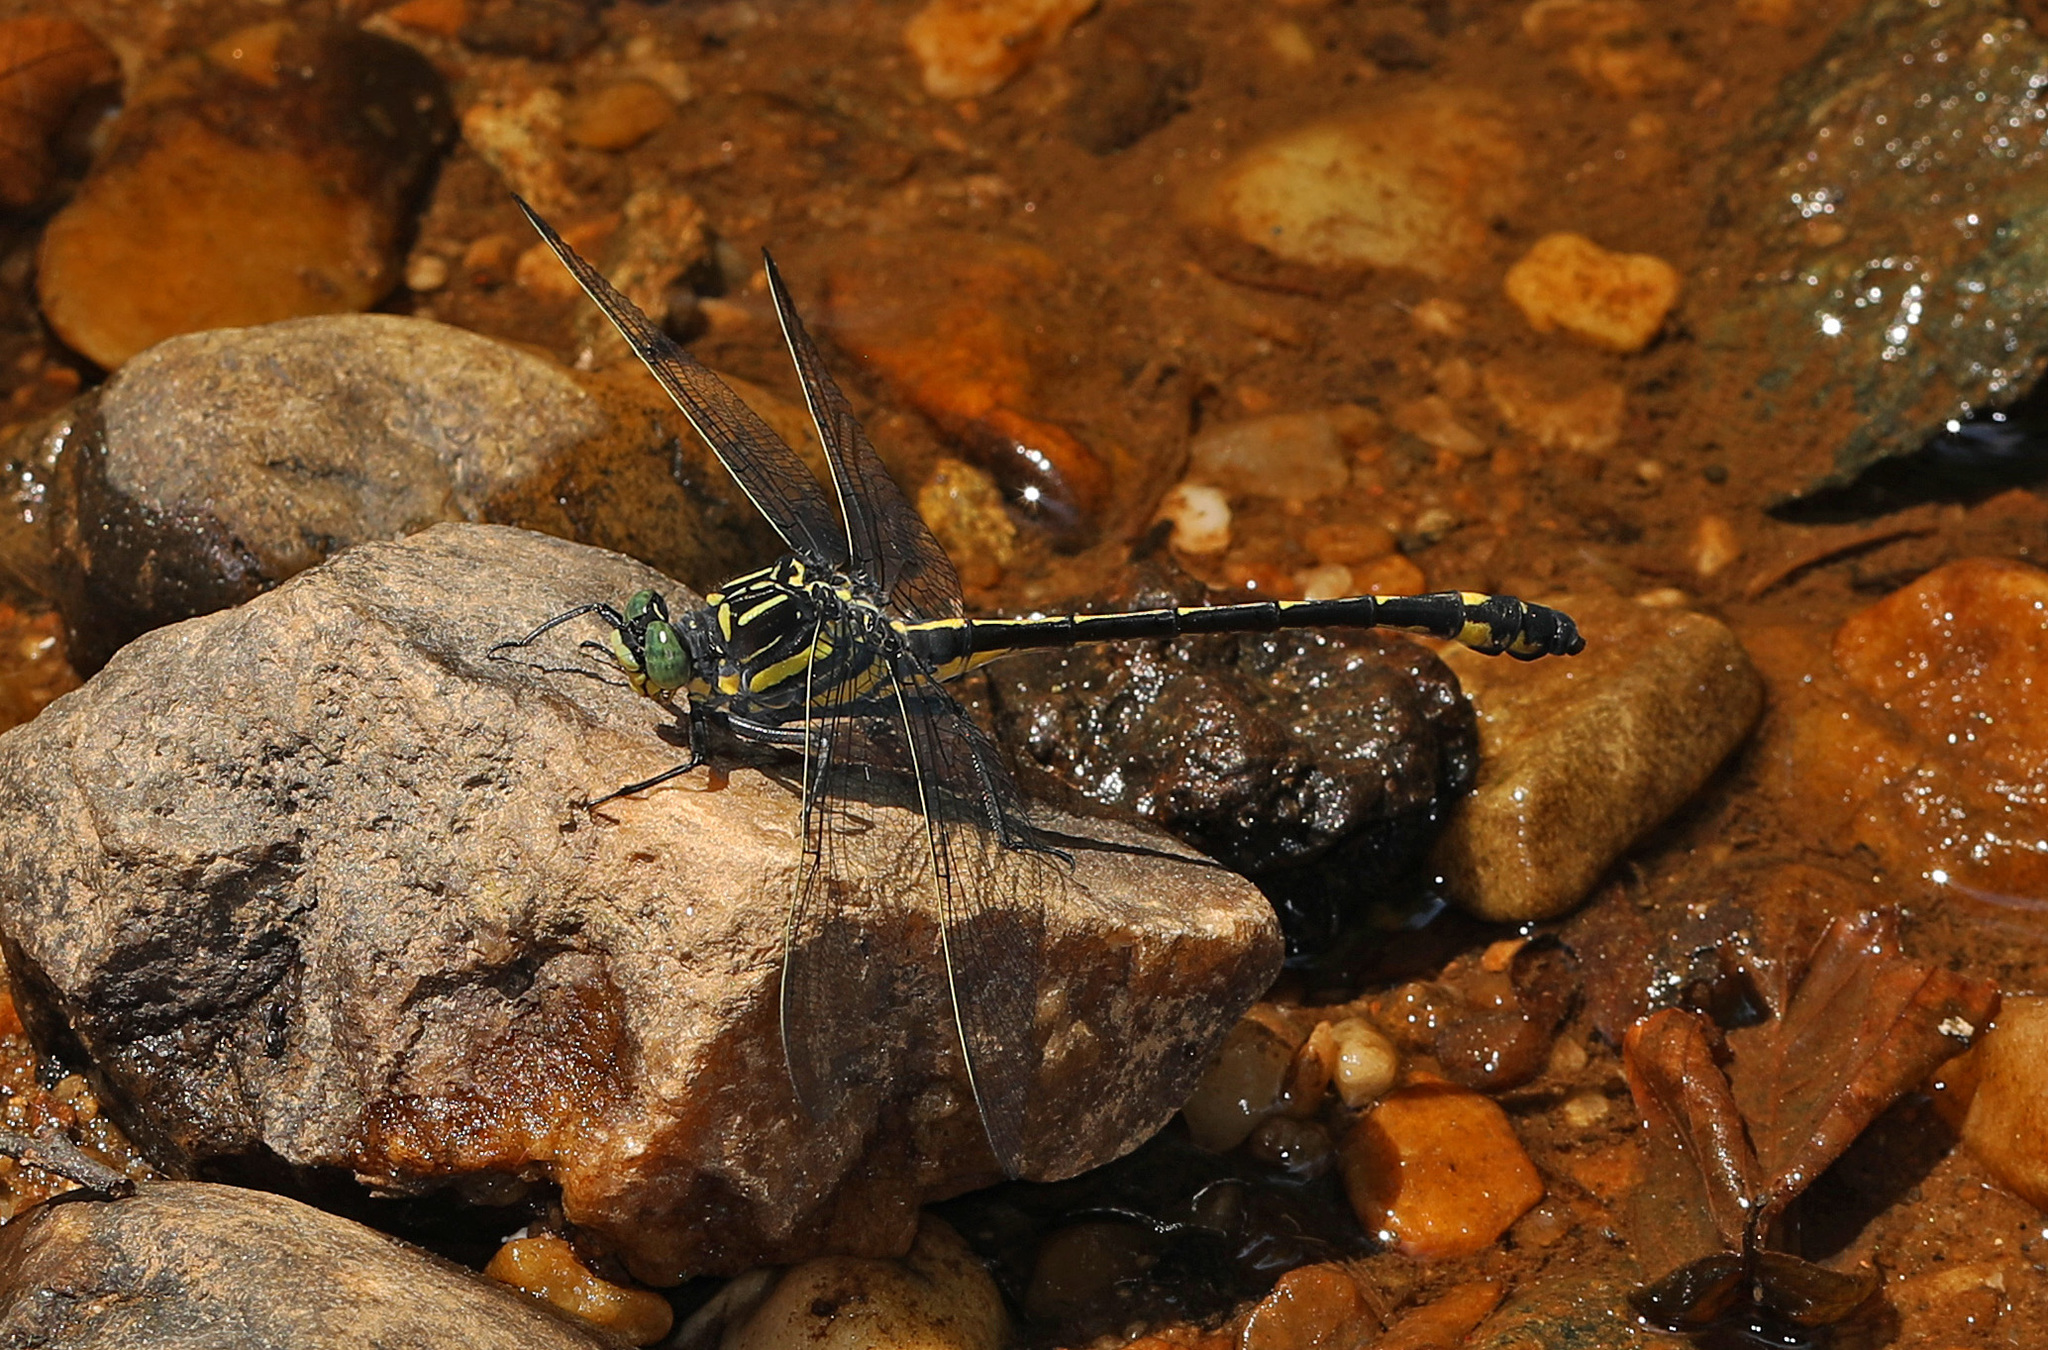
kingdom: Animalia
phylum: Arthropoda
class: Insecta
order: Odonata
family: Gomphidae
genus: Hagenius
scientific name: Hagenius brevistylus
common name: Dragonhunter
